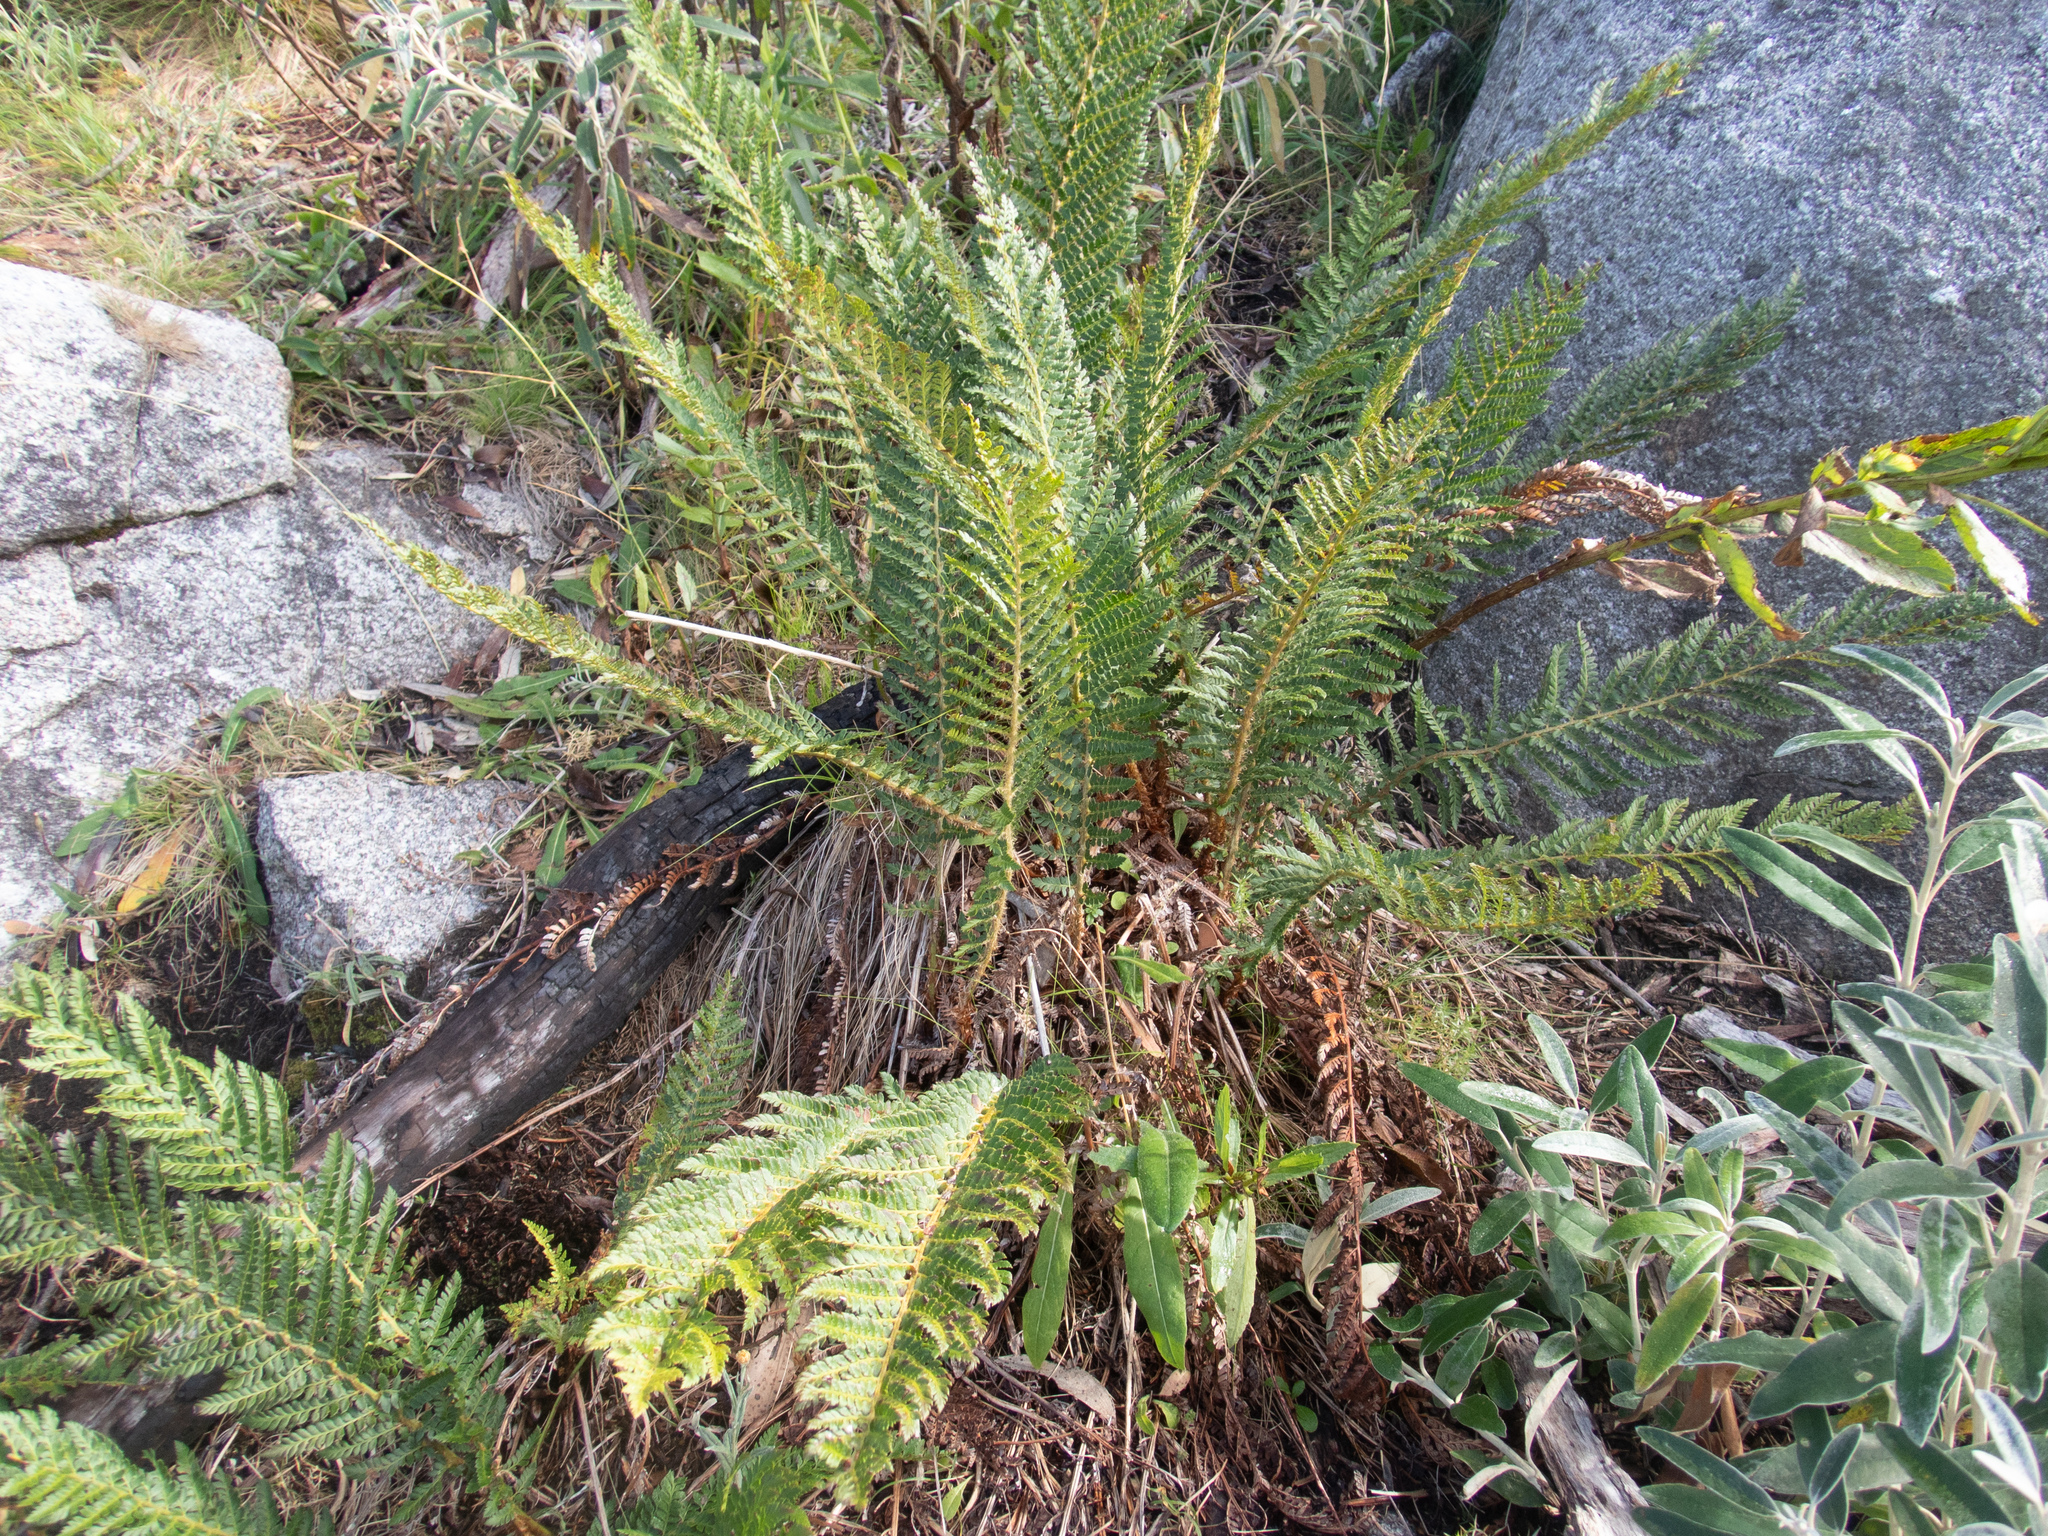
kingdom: Plantae
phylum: Tracheophyta
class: Polypodiopsida
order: Polypodiales
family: Dryopteridaceae
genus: Polystichum
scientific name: Polystichum proliferum
